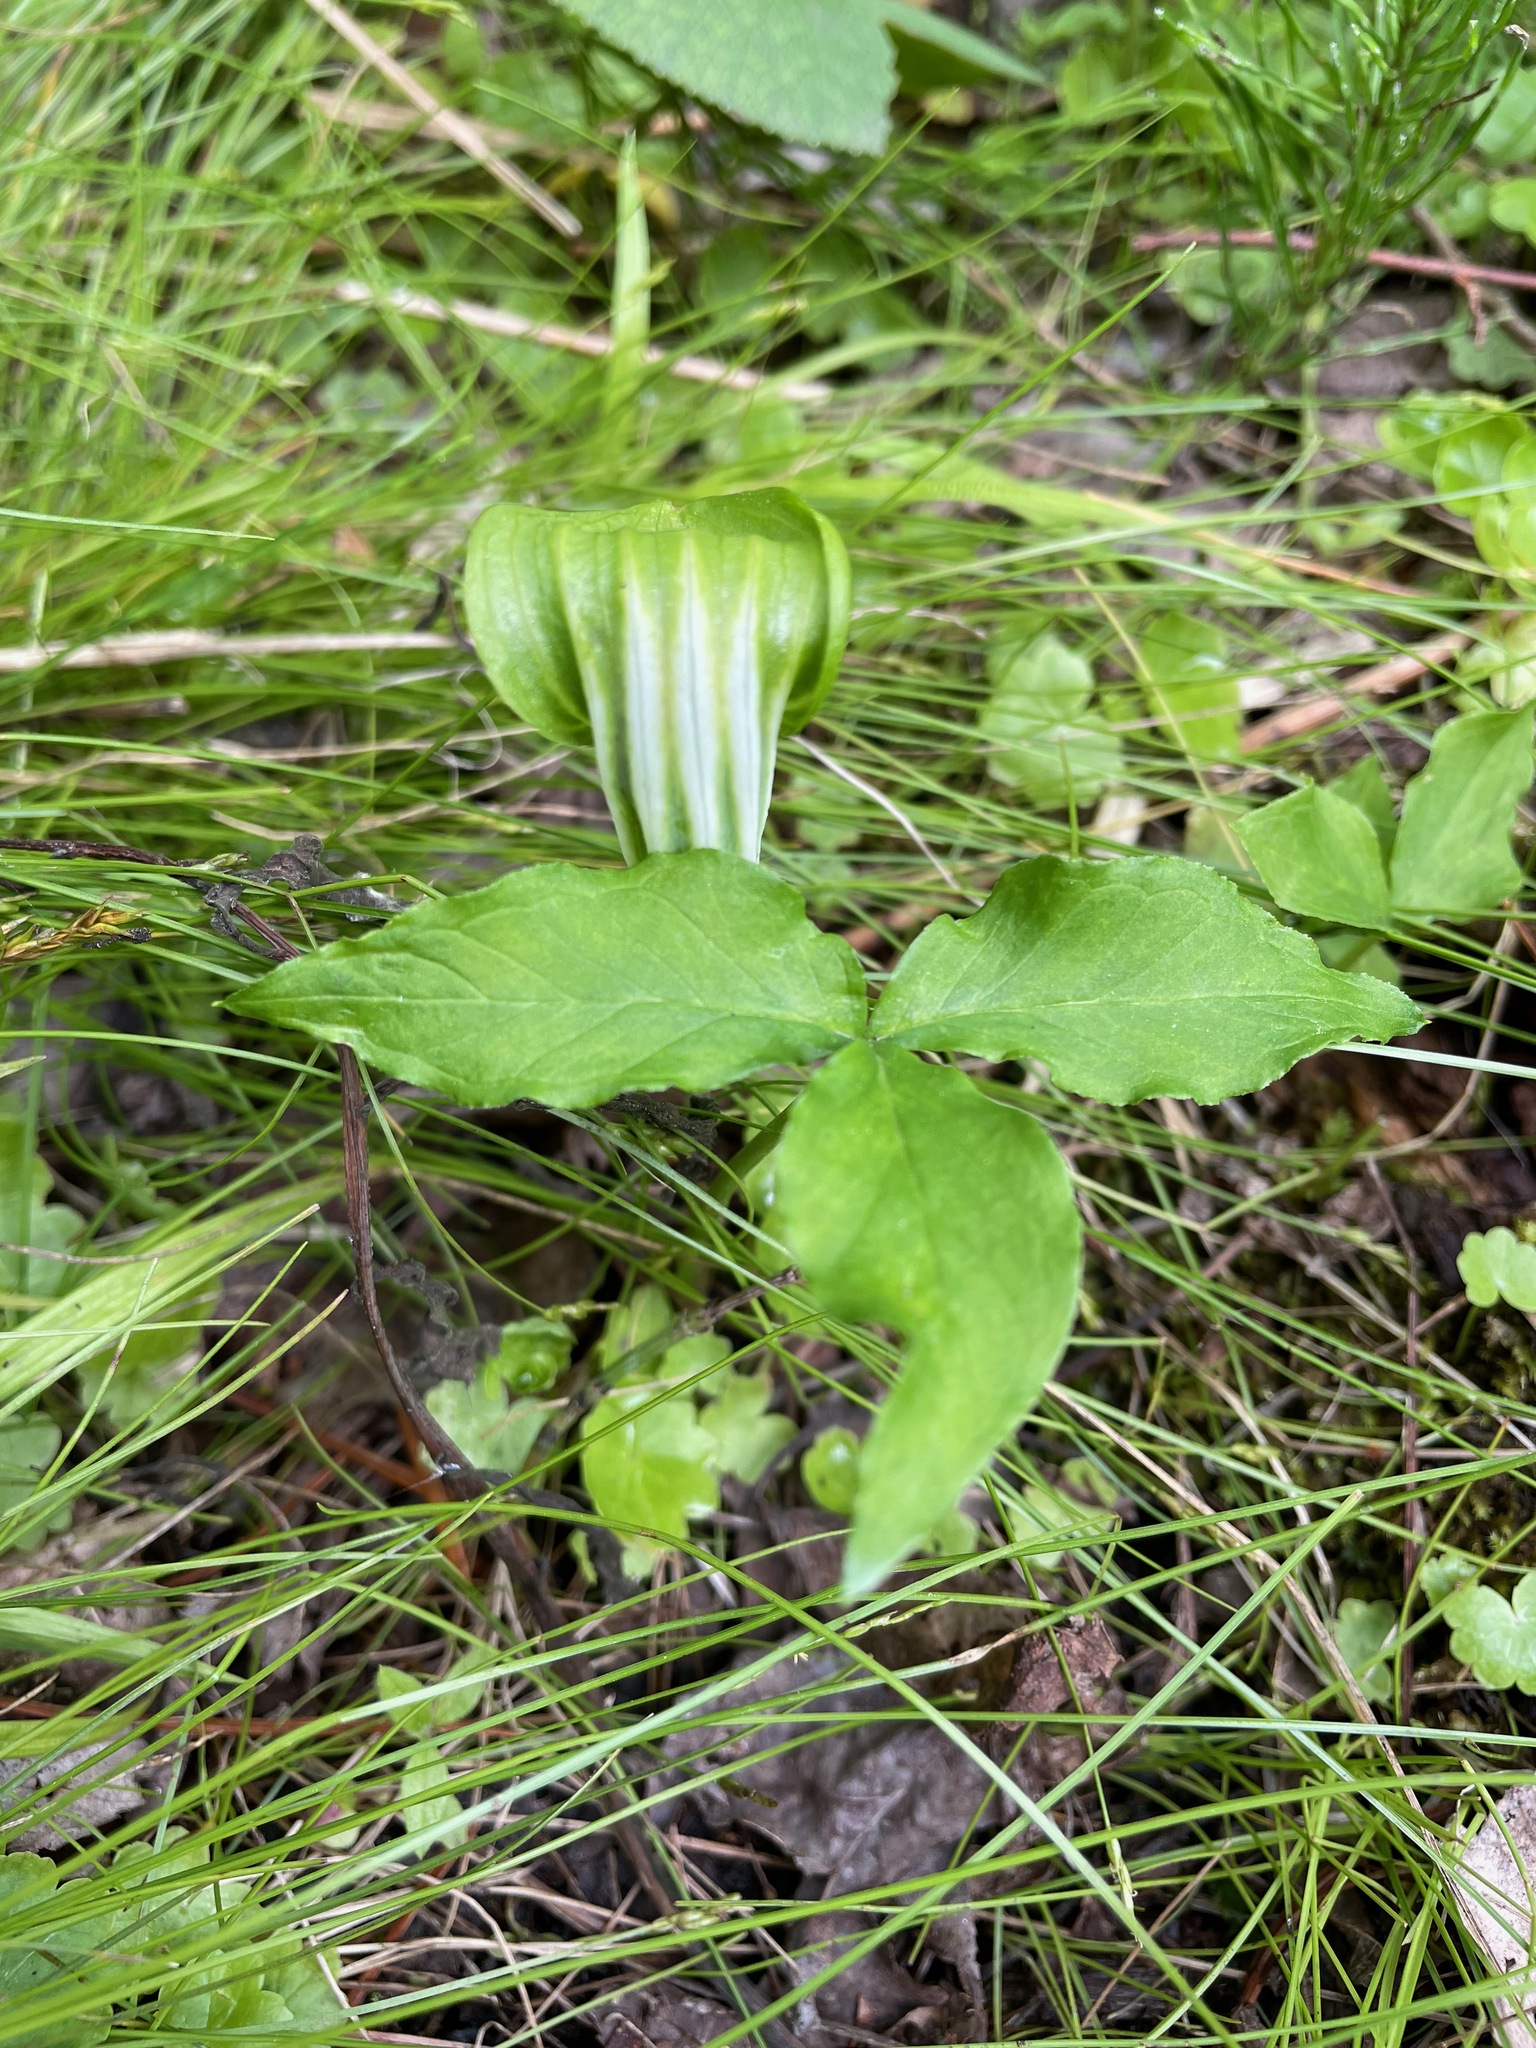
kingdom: Plantae
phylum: Tracheophyta
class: Liliopsida
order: Alismatales
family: Araceae
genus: Arisaema
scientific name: Arisaema stewardsonii
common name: Swamp jack-in-the-pulpit
